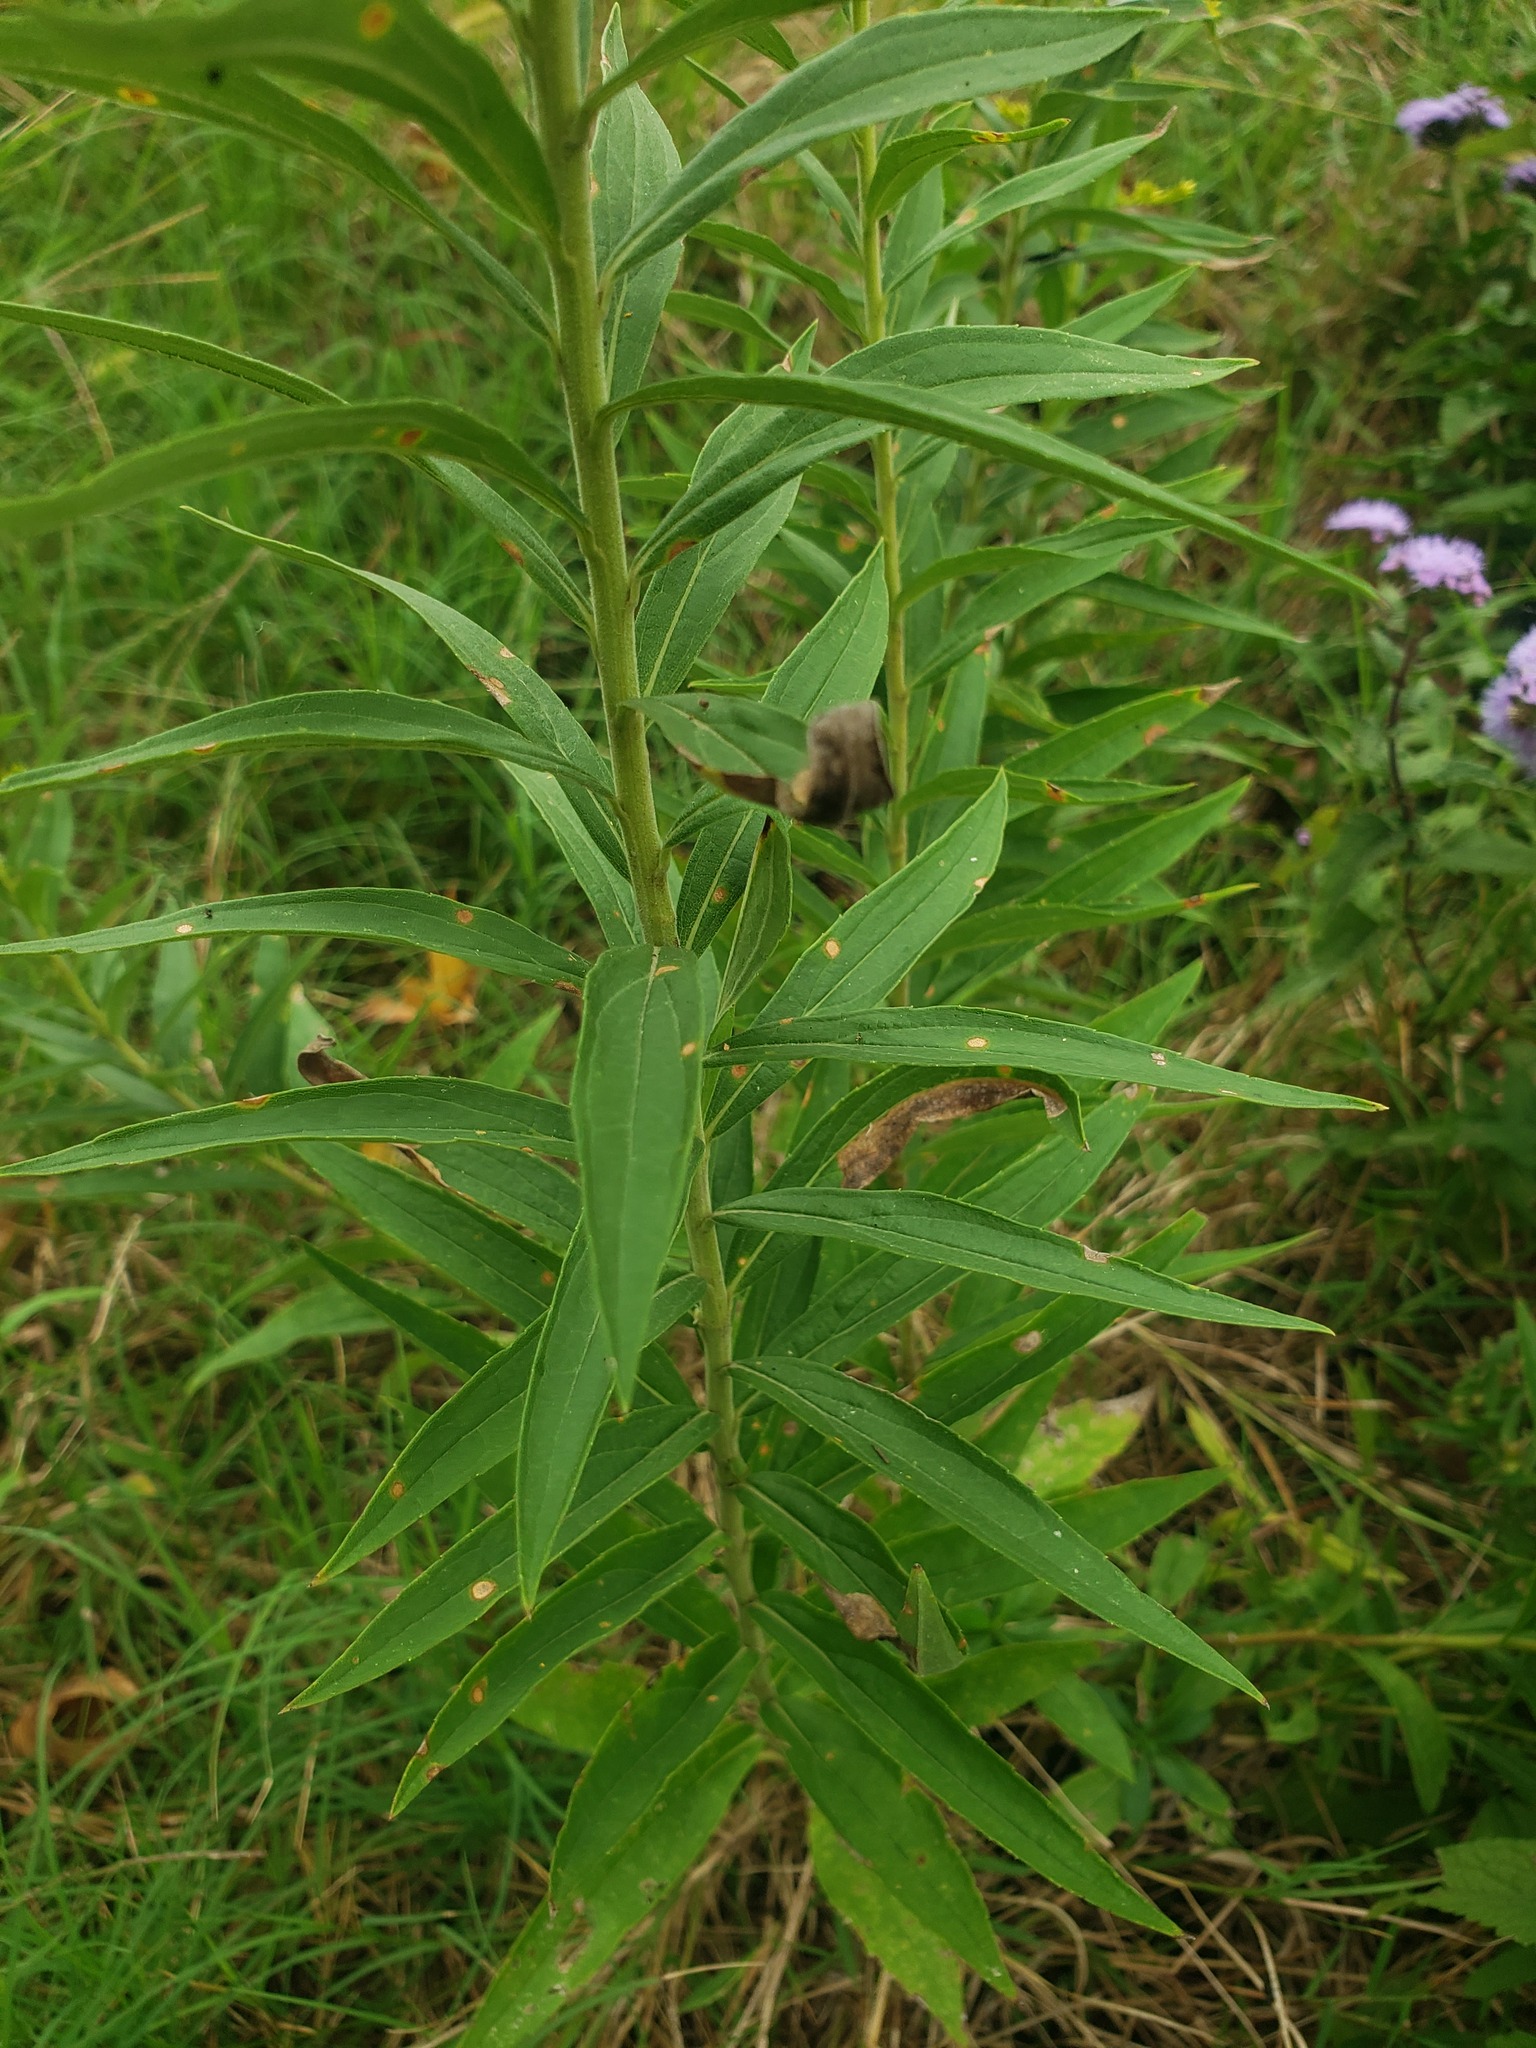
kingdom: Plantae
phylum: Tracheophyta
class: Magnoliopsida
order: Asterales
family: Asteraceae
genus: Solidago
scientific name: Solidago altissima
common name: Late goldenrod
